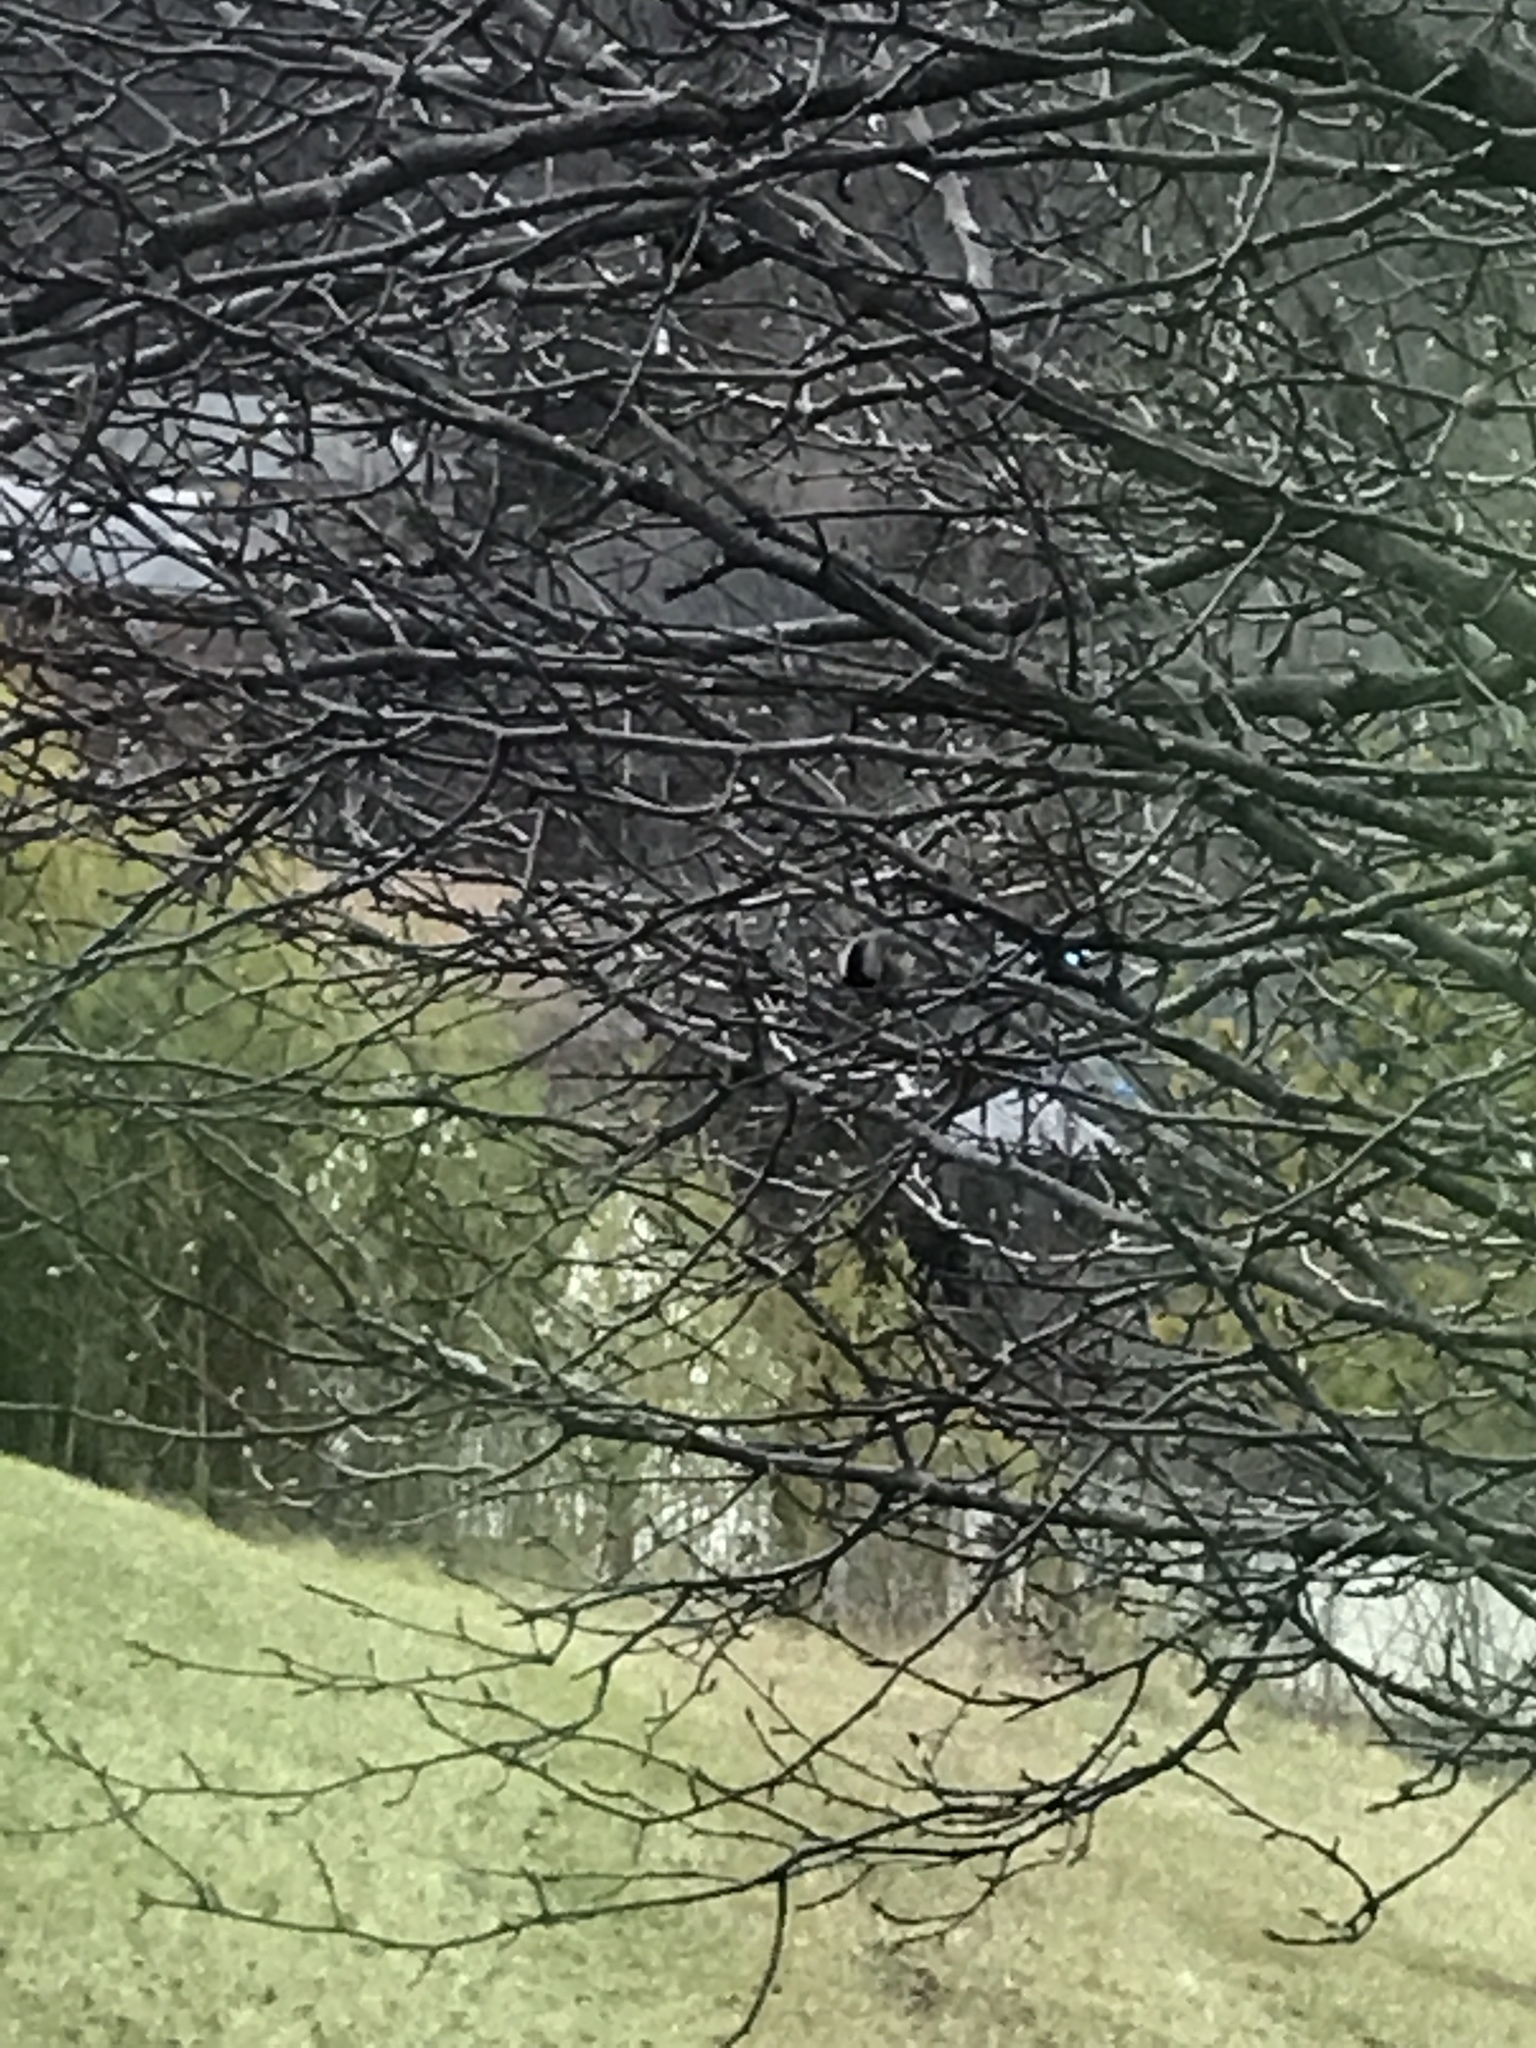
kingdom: Animalia
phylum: Chordata
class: Aves
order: Passeriformes
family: Paridae
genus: Poecile
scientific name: Poecile carolinensis
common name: Carolina chickadee
